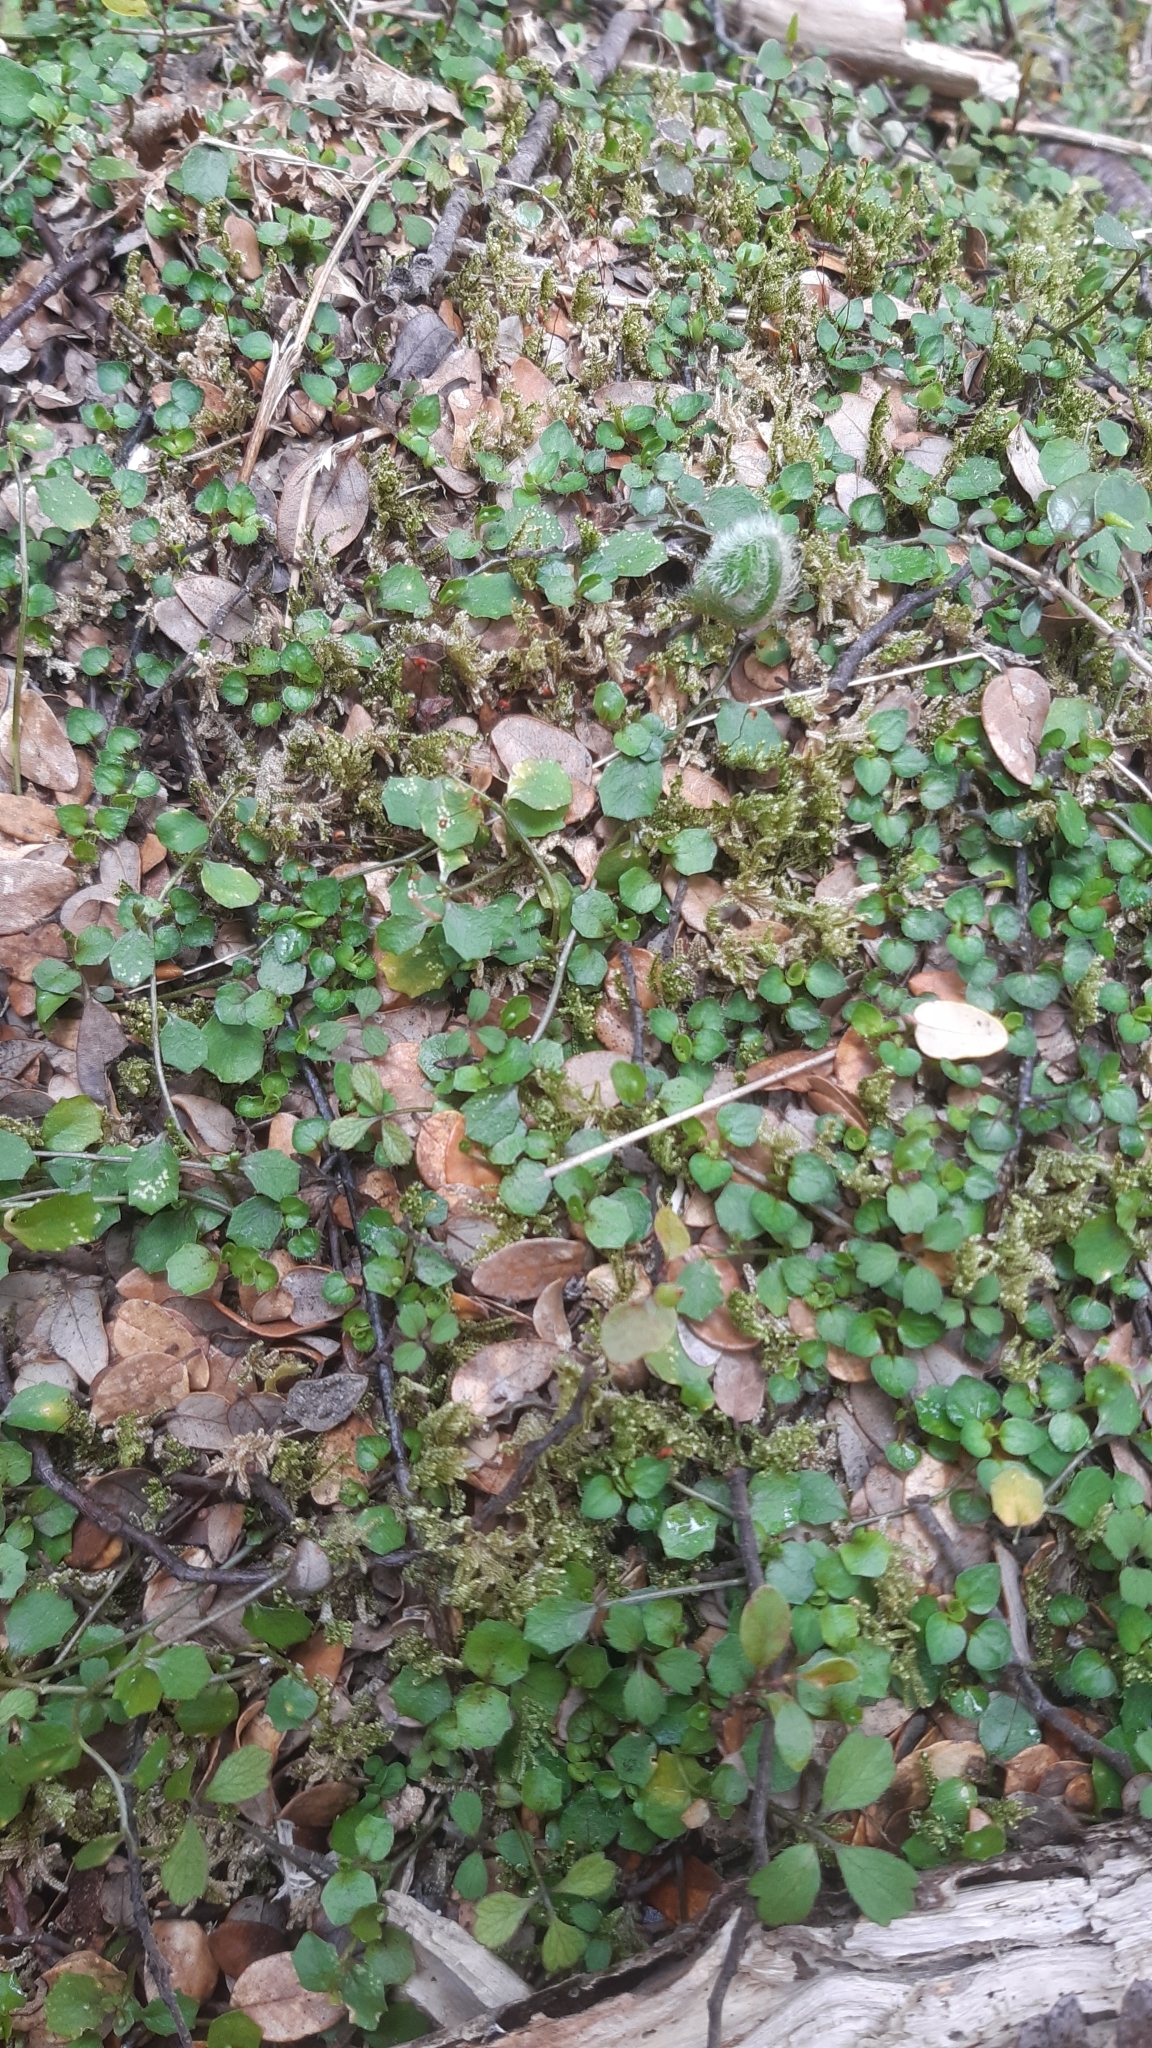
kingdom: Plantae
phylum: Tracheophyta
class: Magnoliopsida
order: Asterales
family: Campanulaceae
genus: Lobelia
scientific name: Lobelia angulata
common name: Lawn lobelia
